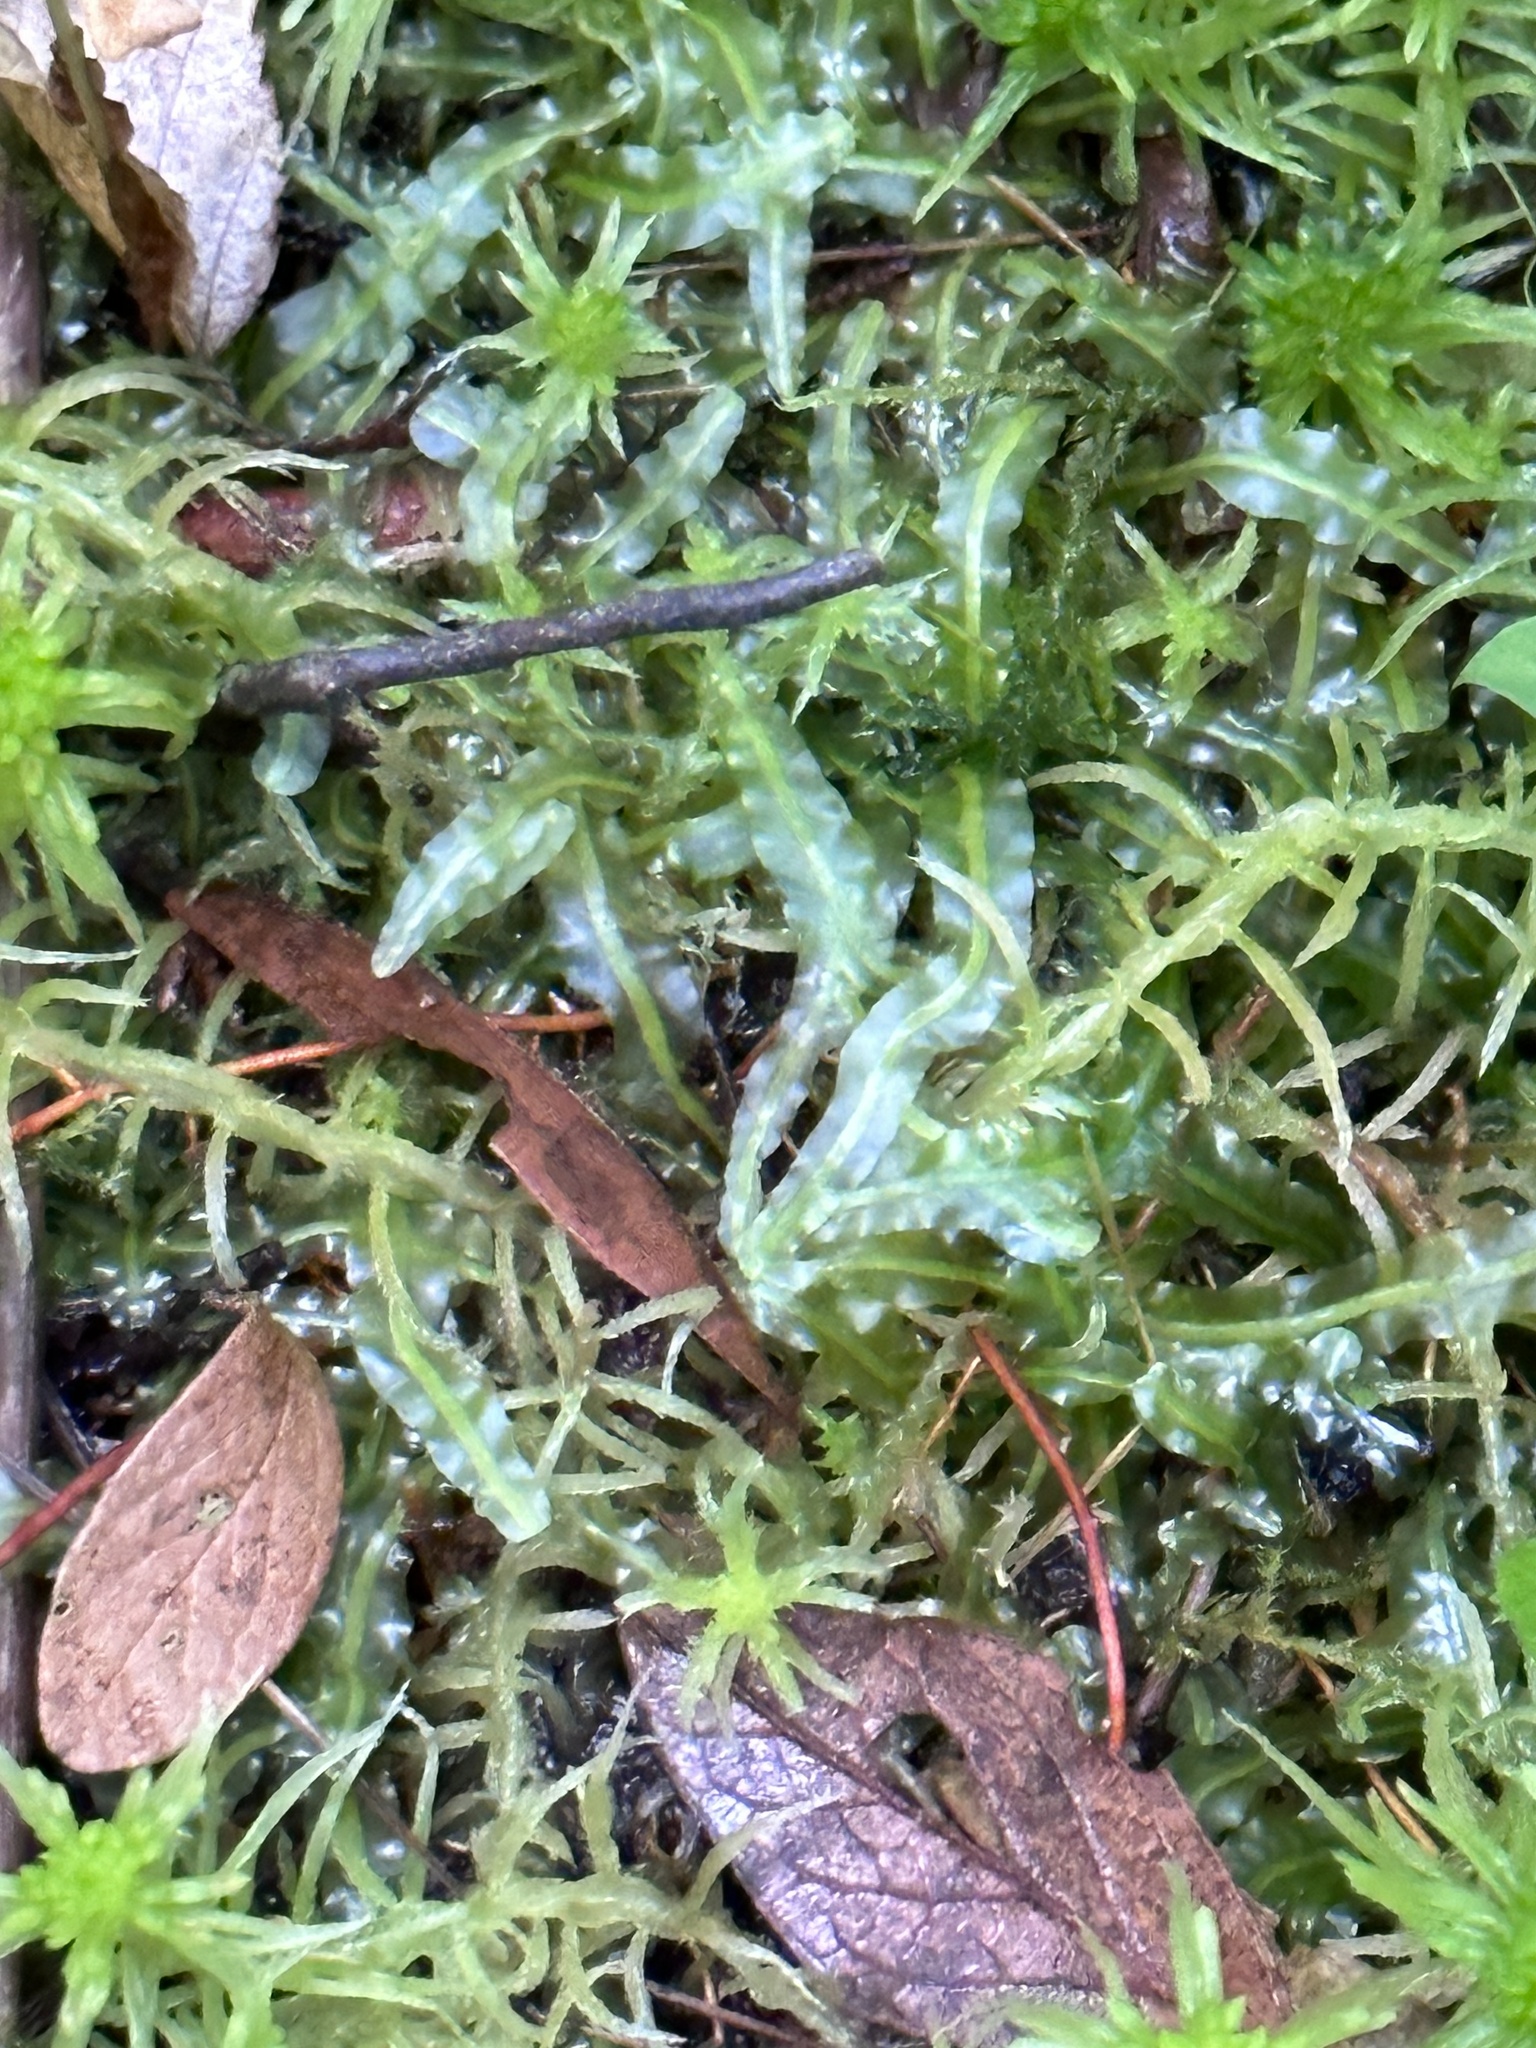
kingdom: Plantae
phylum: Marchantiophyta
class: Jungermanniopsida
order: Pallaviciniales
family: Pallaviciniaceae
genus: Pallavicinia
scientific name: Pallavicinia lyellii
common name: Veilwort
